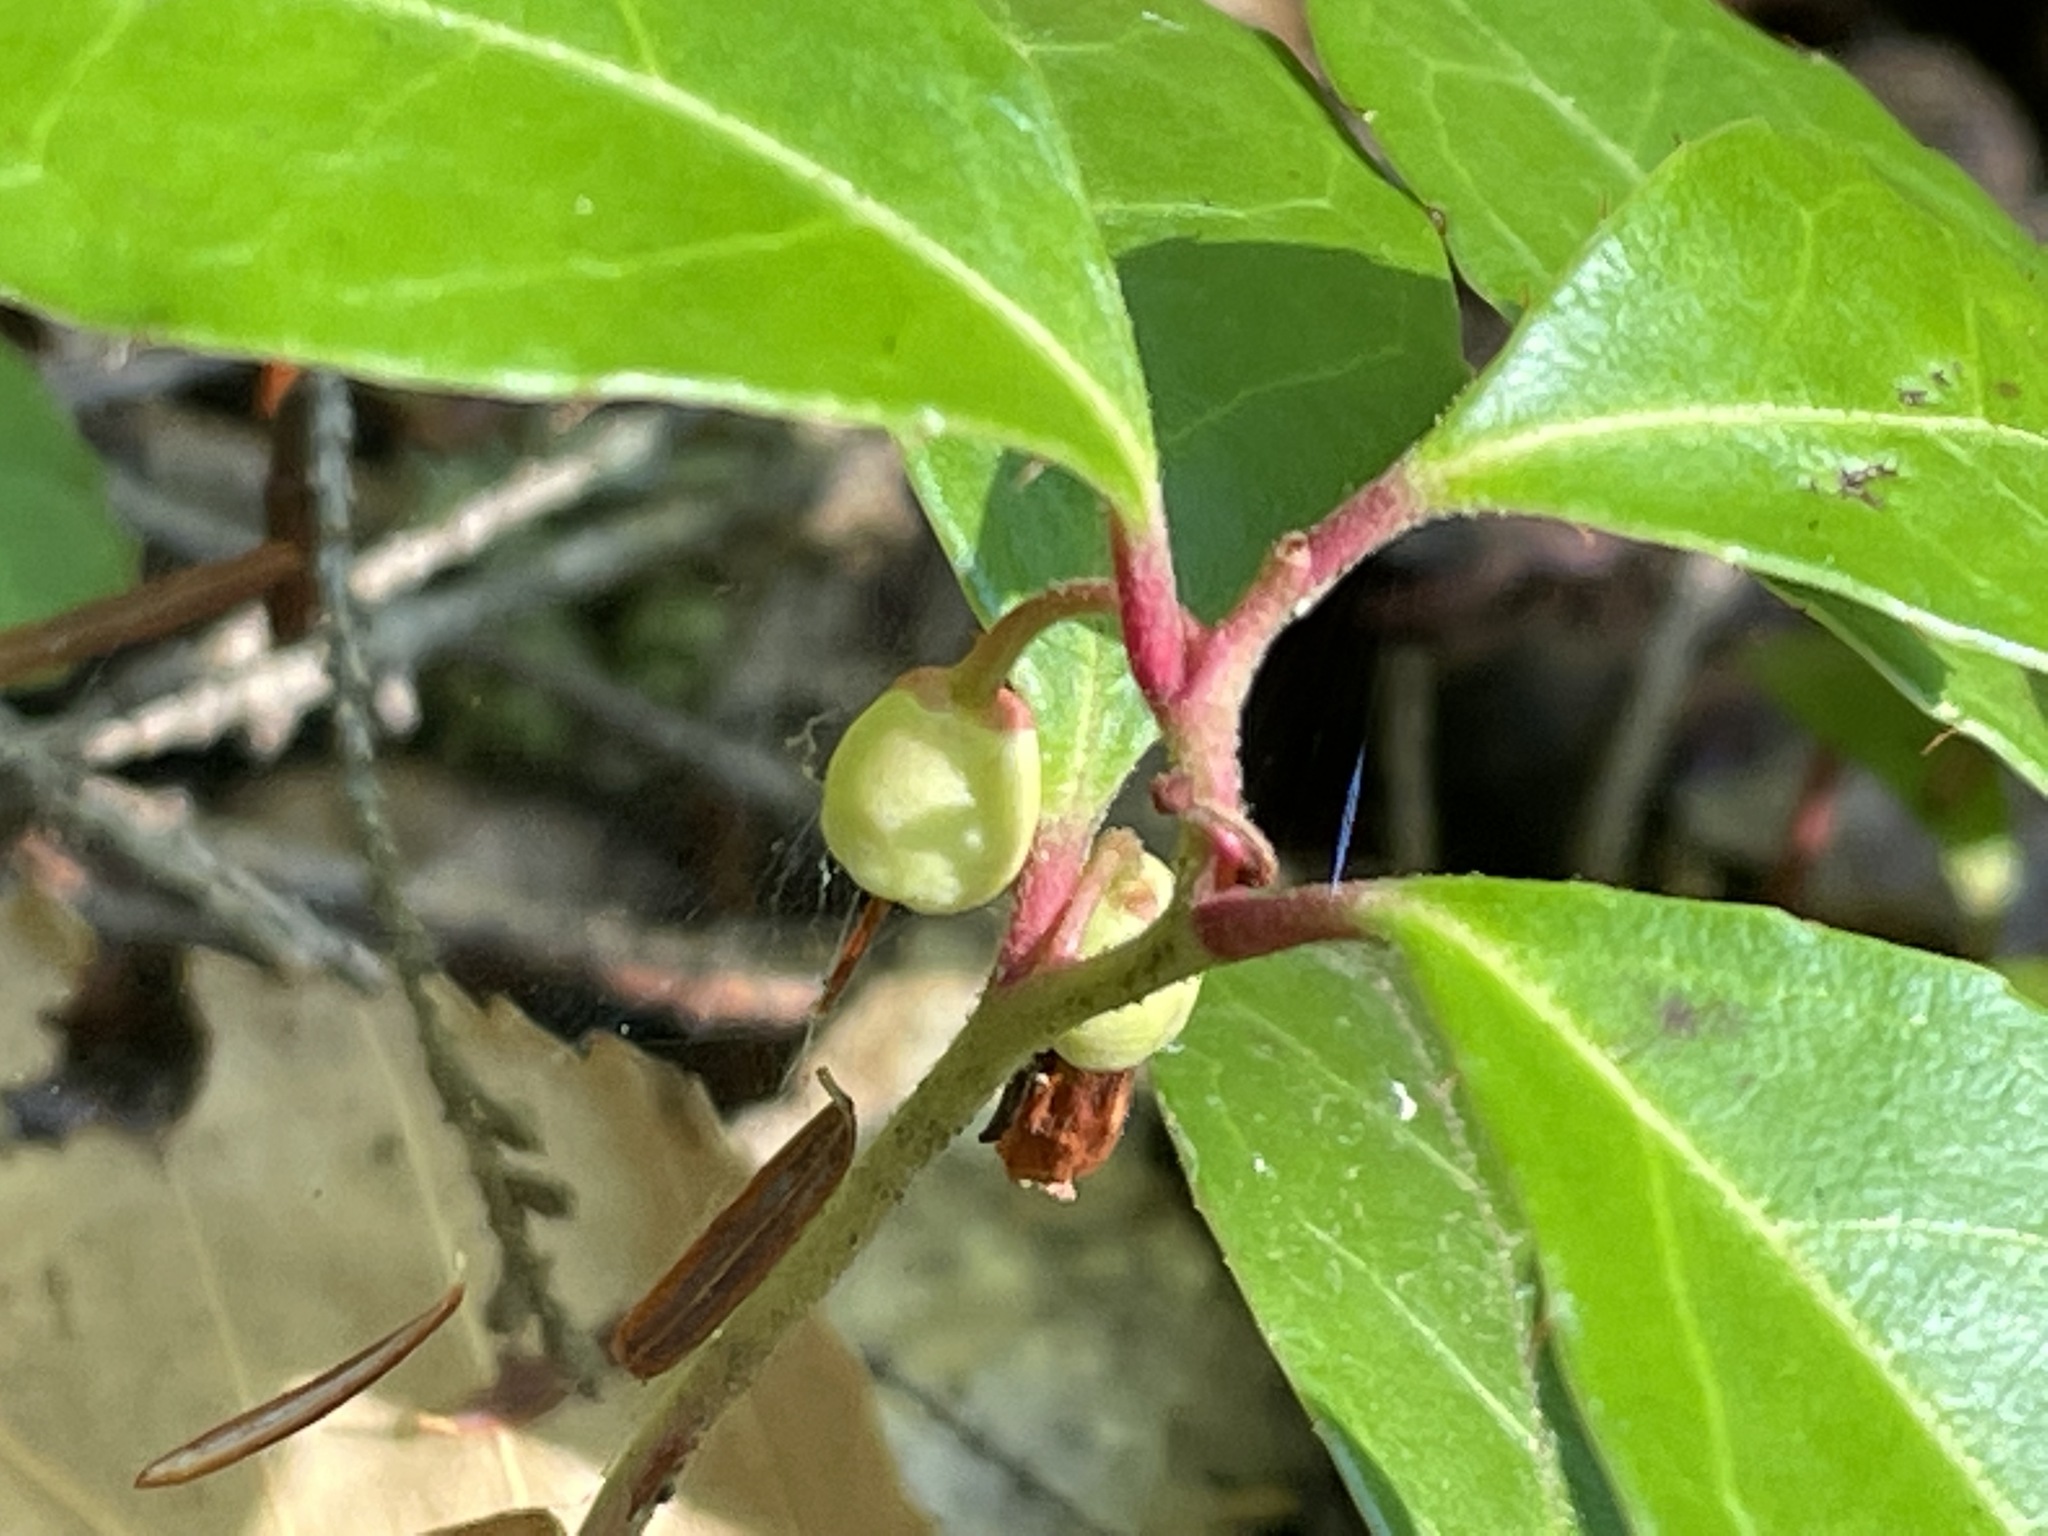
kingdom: Plantae
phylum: Tracheophyta
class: Magnoliopsida
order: Ericales
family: Ericaceae
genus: Gaultheria
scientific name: Gaultheria procumbens
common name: Checkerberry
